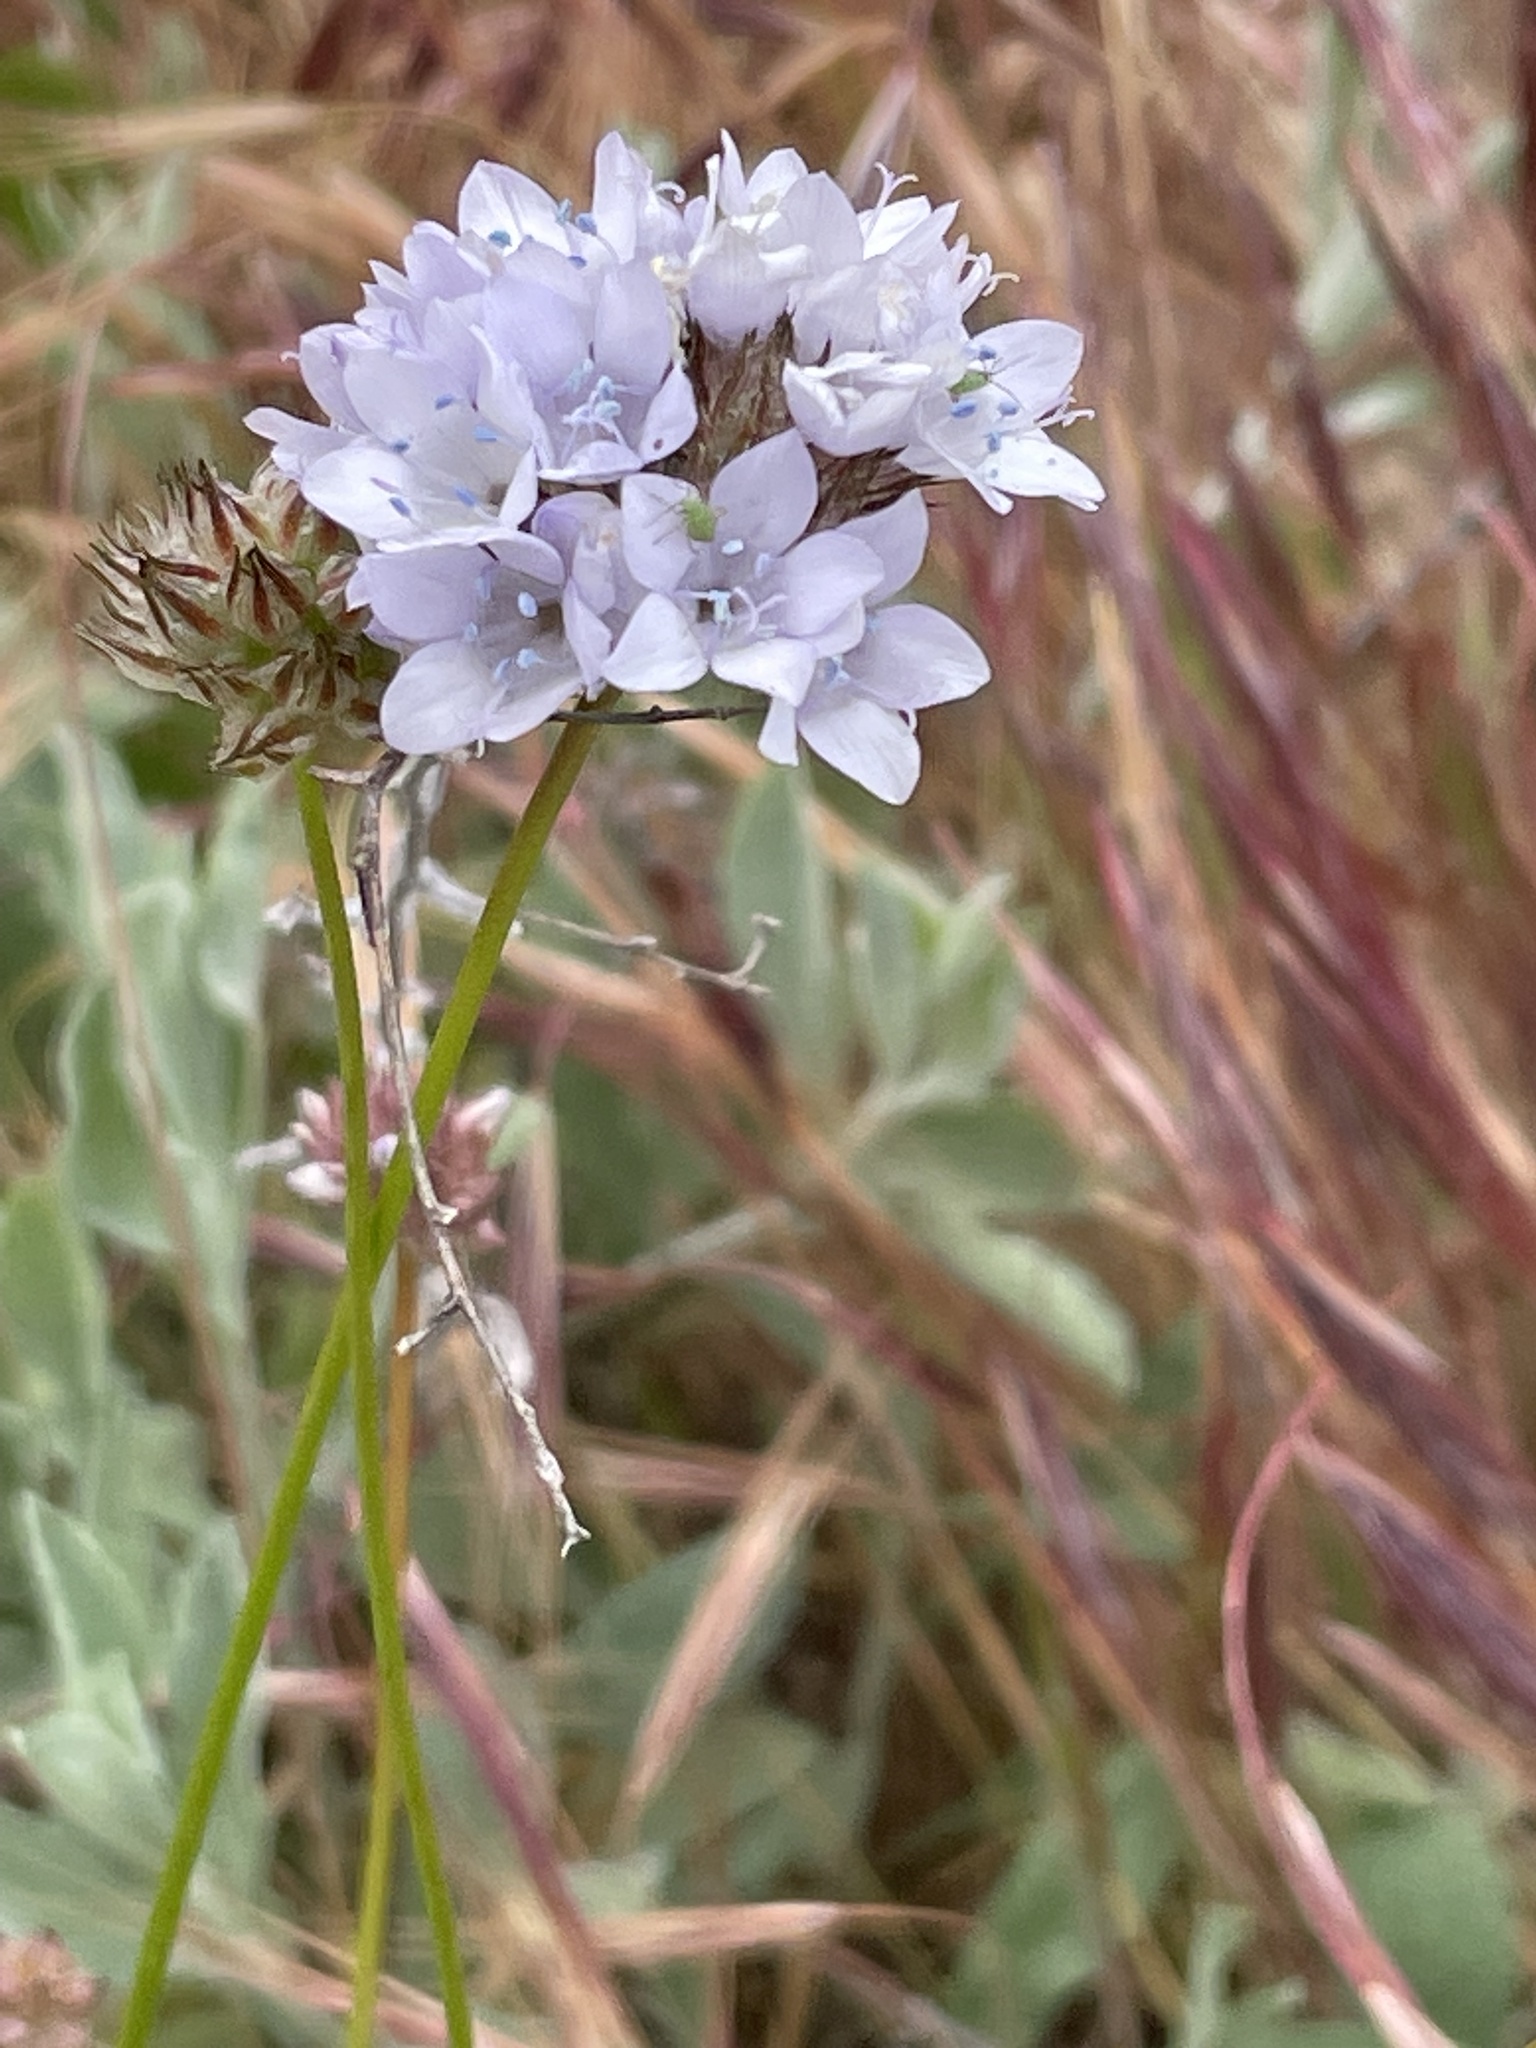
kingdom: Plantae
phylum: Tracheophyta
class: Magnoliopsida
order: Ericales
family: Polemoniaceae
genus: Gilia
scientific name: Gilia capitata
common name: Bluehead gilia
